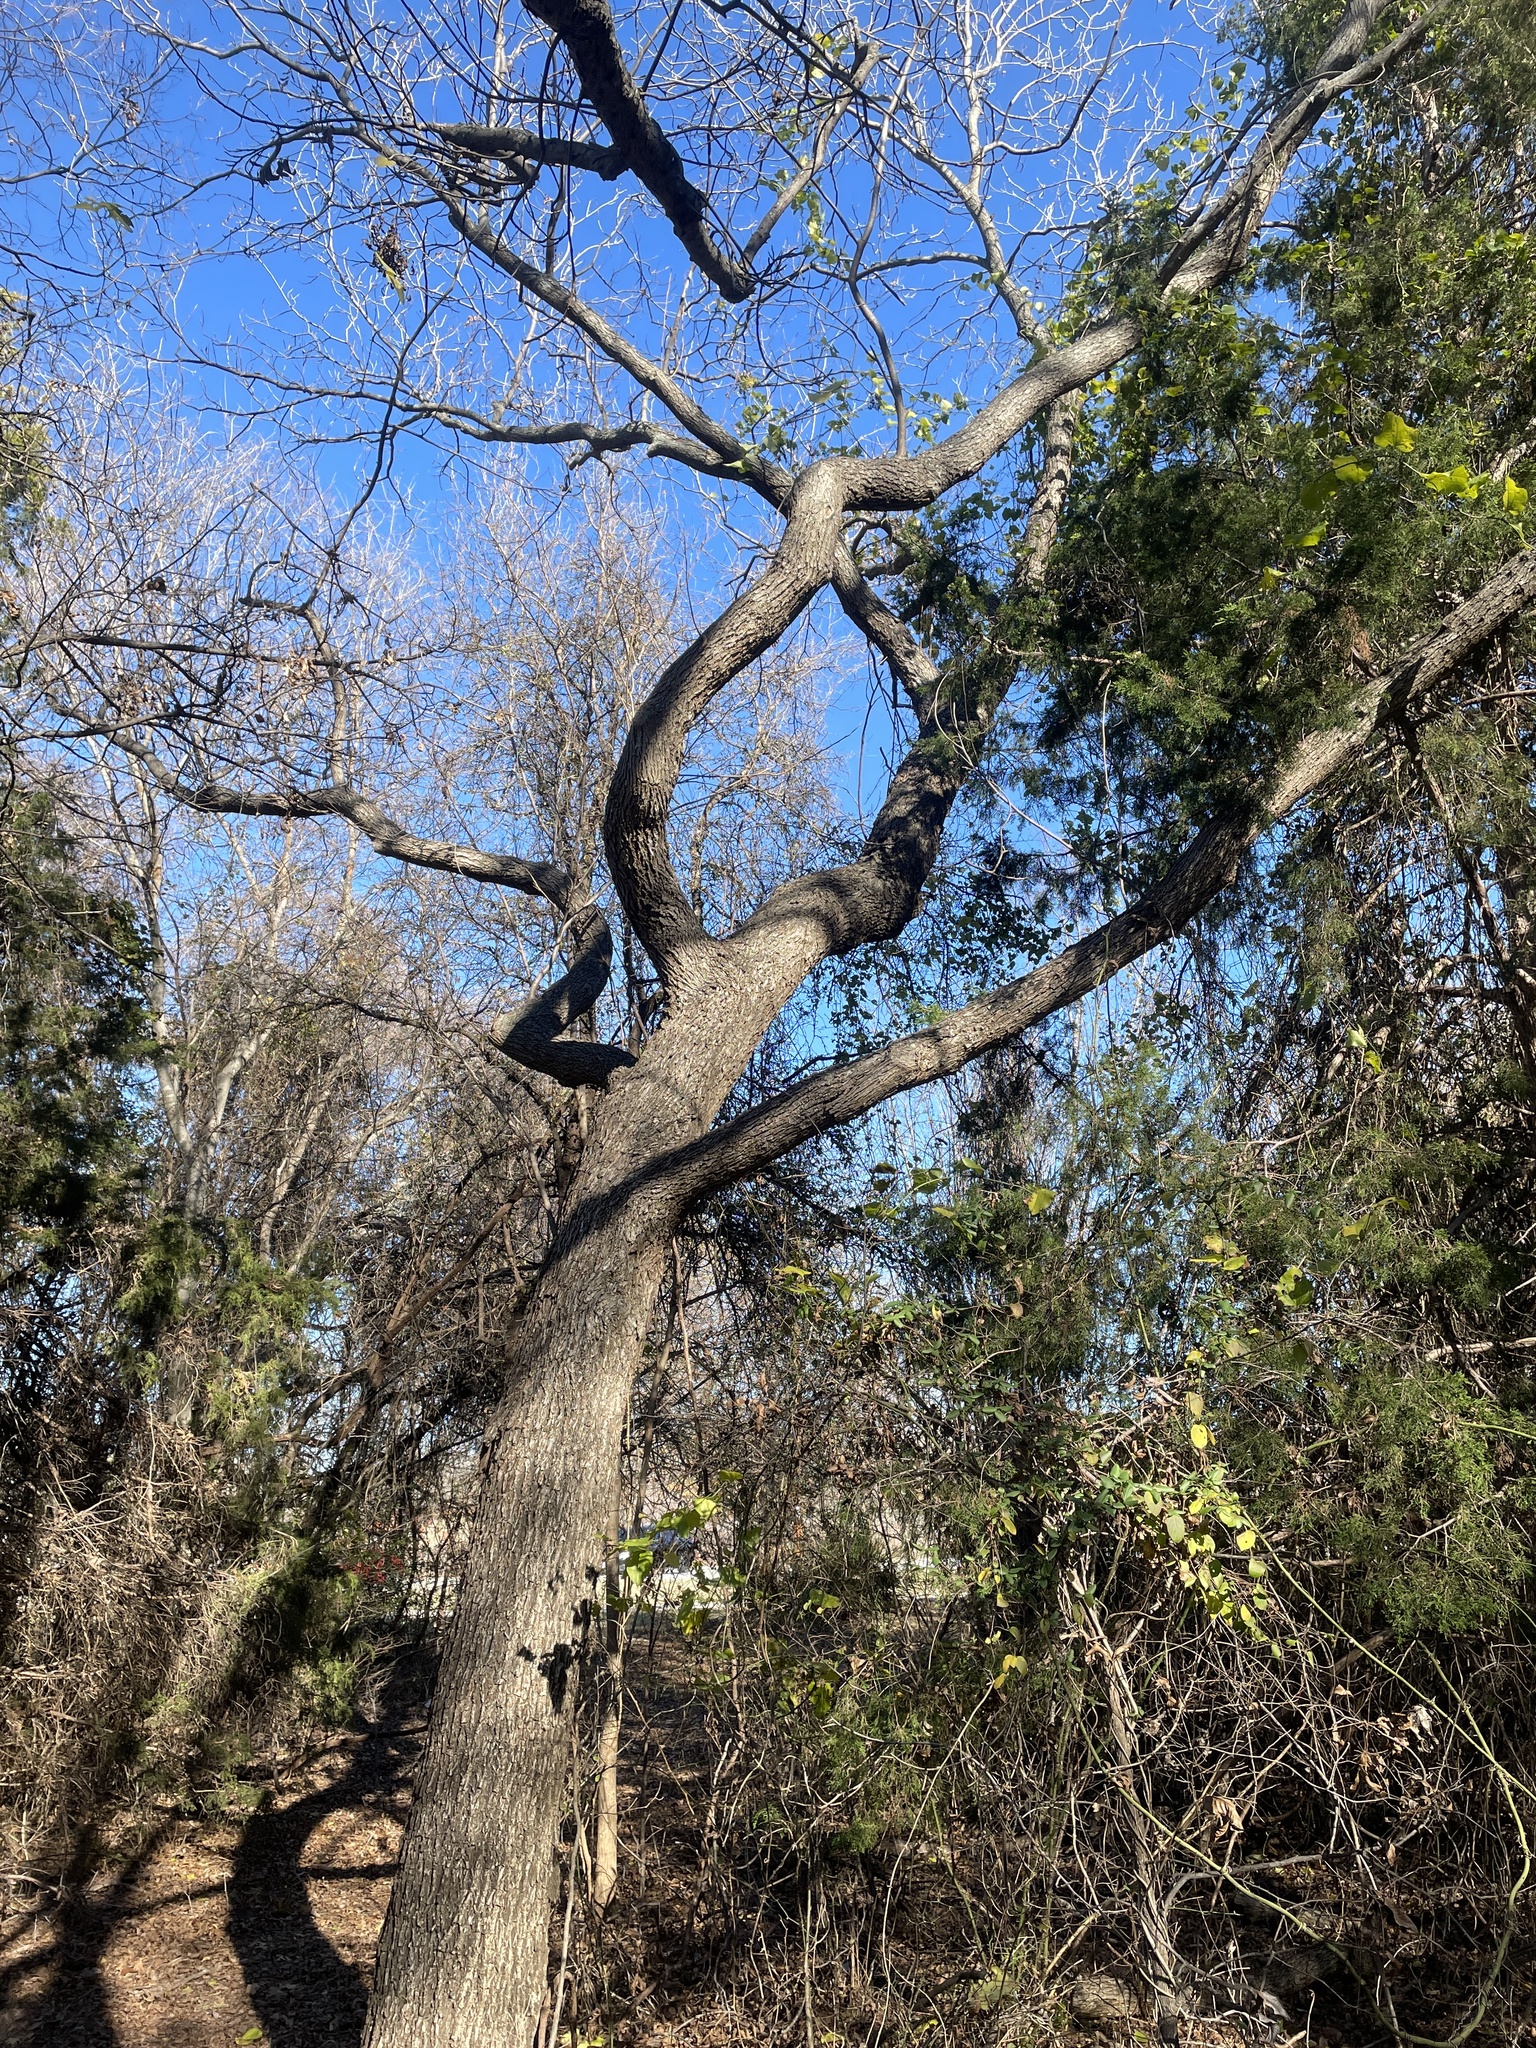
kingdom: Plantae
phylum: Tracheophyta
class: Magnoliopsida
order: Fagales
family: Juglandaceae
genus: Carya
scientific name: Carya illinoinensis
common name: Pecan
